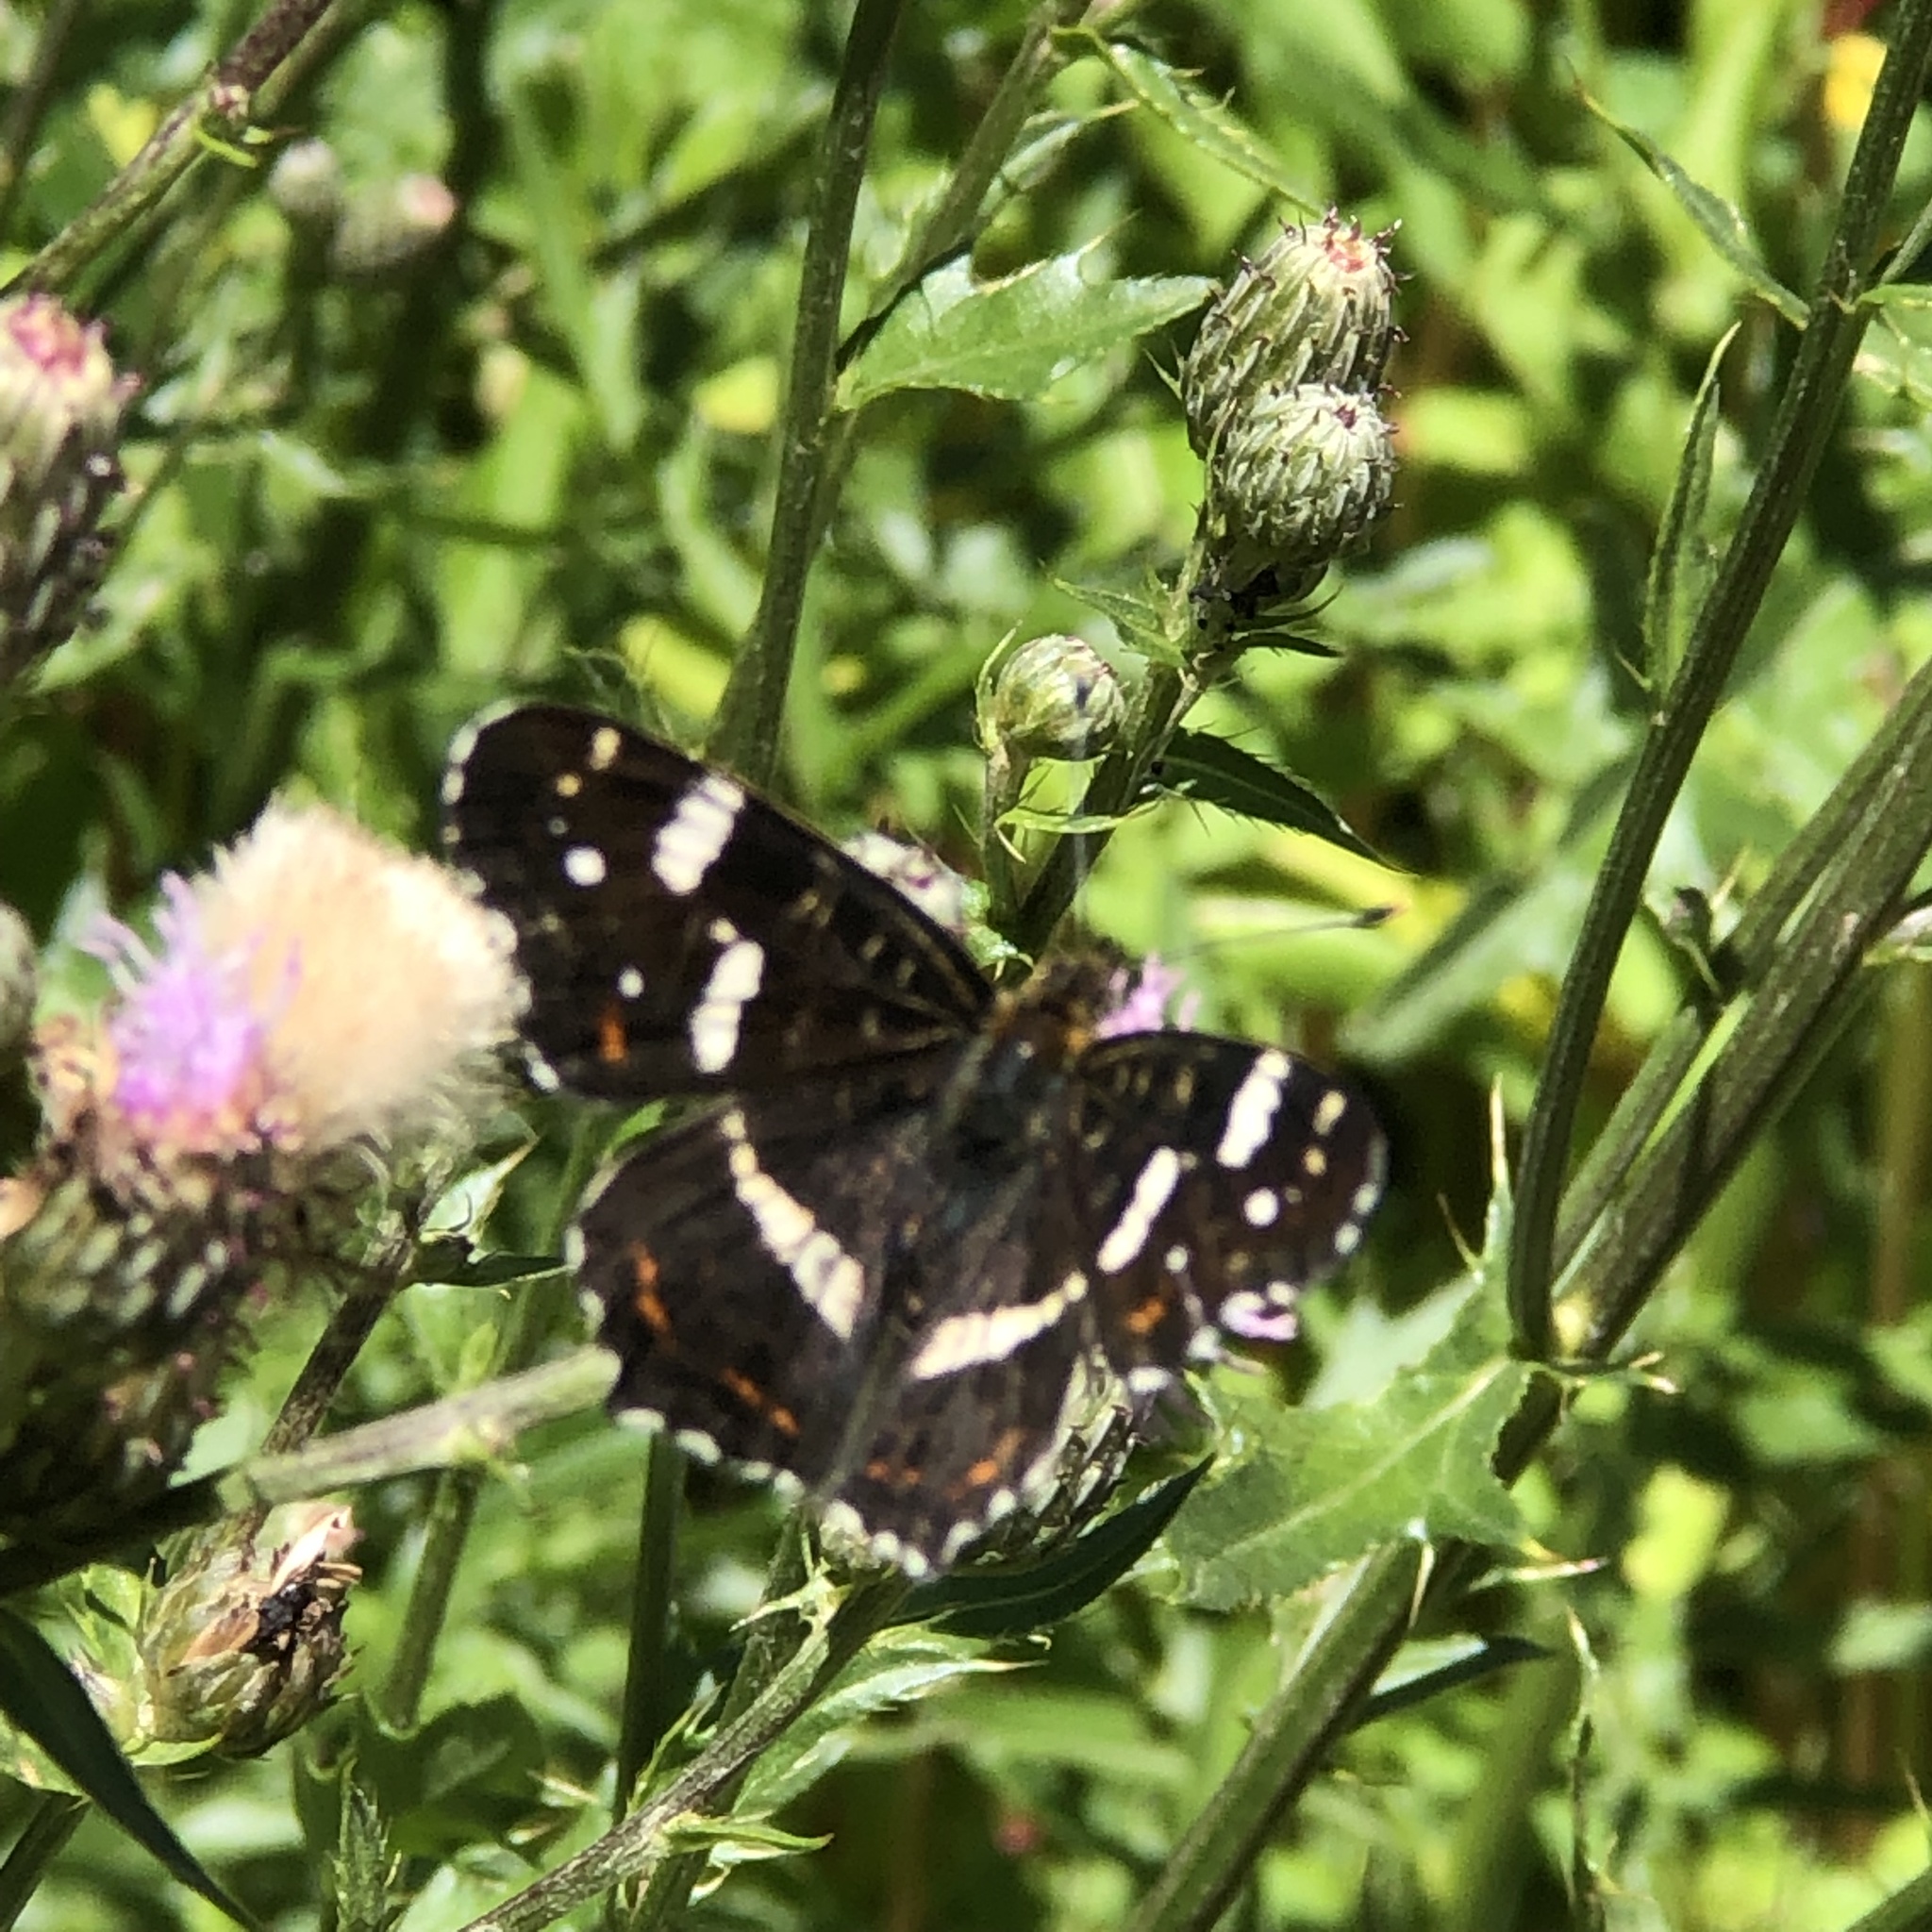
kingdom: Animalia
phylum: Arthropoda
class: Insecta
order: Lepidoptera
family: Nymphalidae
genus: Araschnia
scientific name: Araschnia levana
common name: Map butterfly
